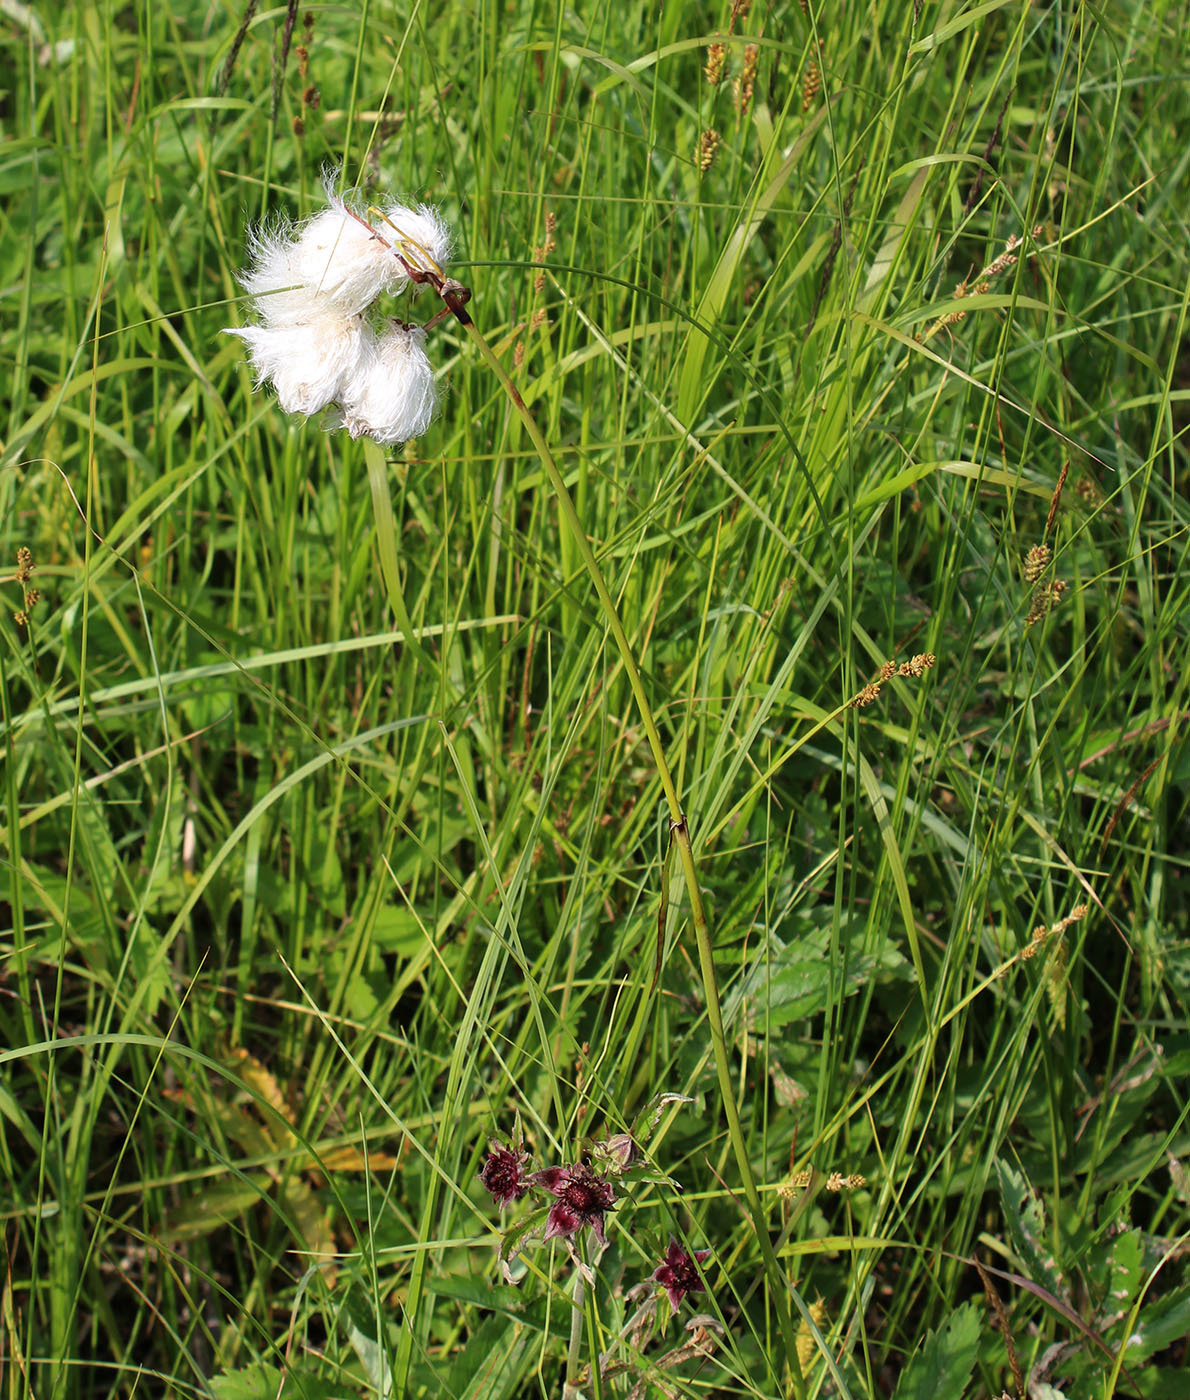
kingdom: Plantae
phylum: Tracheophyta
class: Liliopsida
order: Poales
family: Cyperaceae
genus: Eriophorum
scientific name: Eriophorum angustifolium
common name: Common cottongrass
